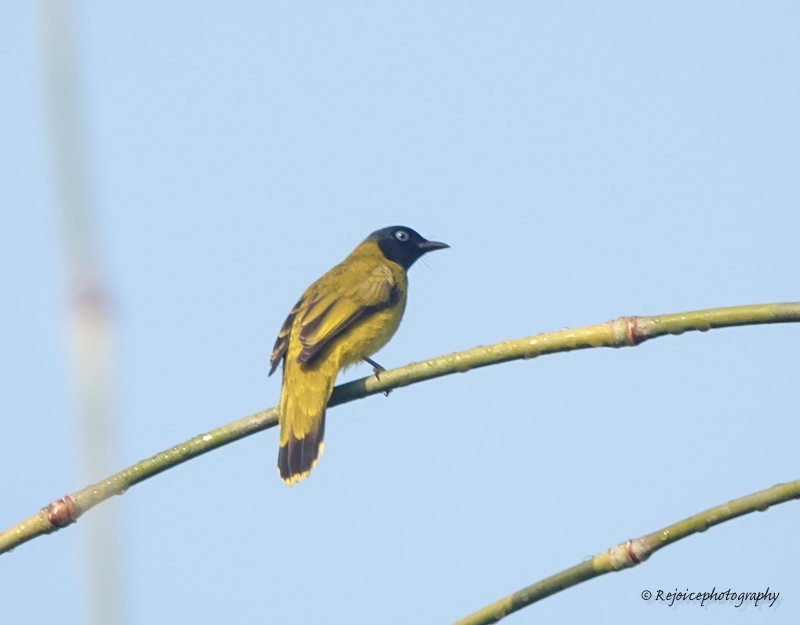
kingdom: Animalia
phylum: Chordata
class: Aves
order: Passeriformes
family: Pycnonotidae
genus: Microtarsus
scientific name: Microtarsus
